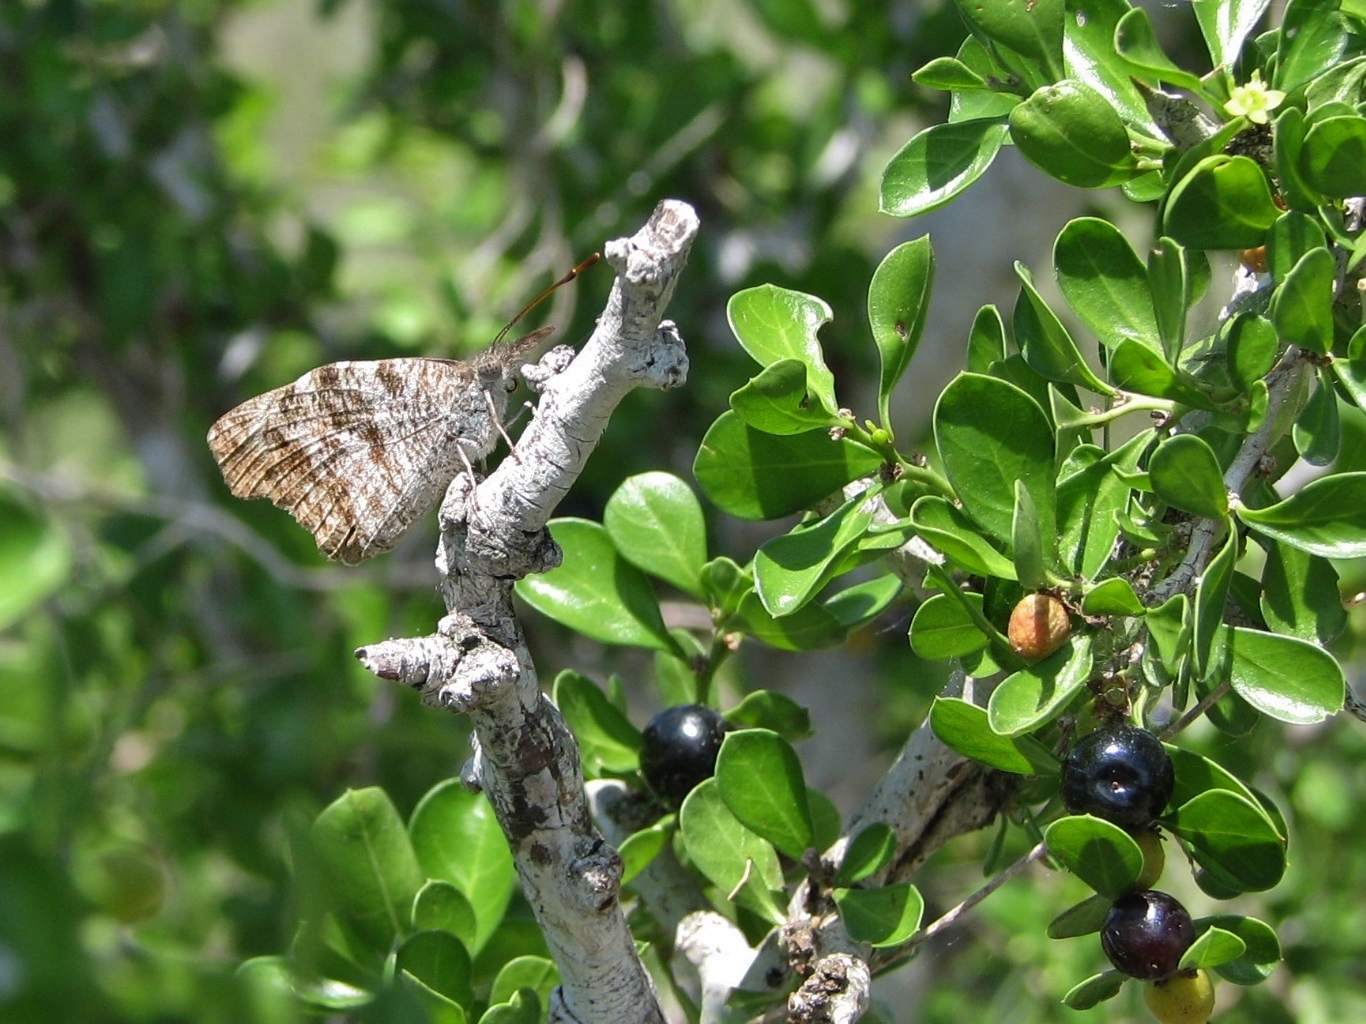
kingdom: Plantae
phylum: Tracheophyta
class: Magnoliopsida
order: Rosales
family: Rhamnaceae
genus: Condalia
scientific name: Condalia hookeri
